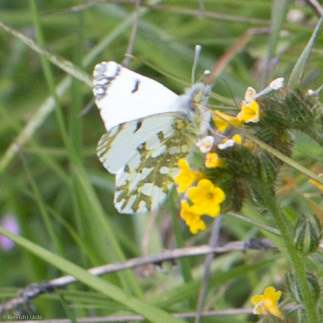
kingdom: Animalia
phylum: Arthropoda
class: Insecta
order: Lepidoptera
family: Pieridae
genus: Euchloe
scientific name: Euchloe ausonides
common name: Creamy marblewing
